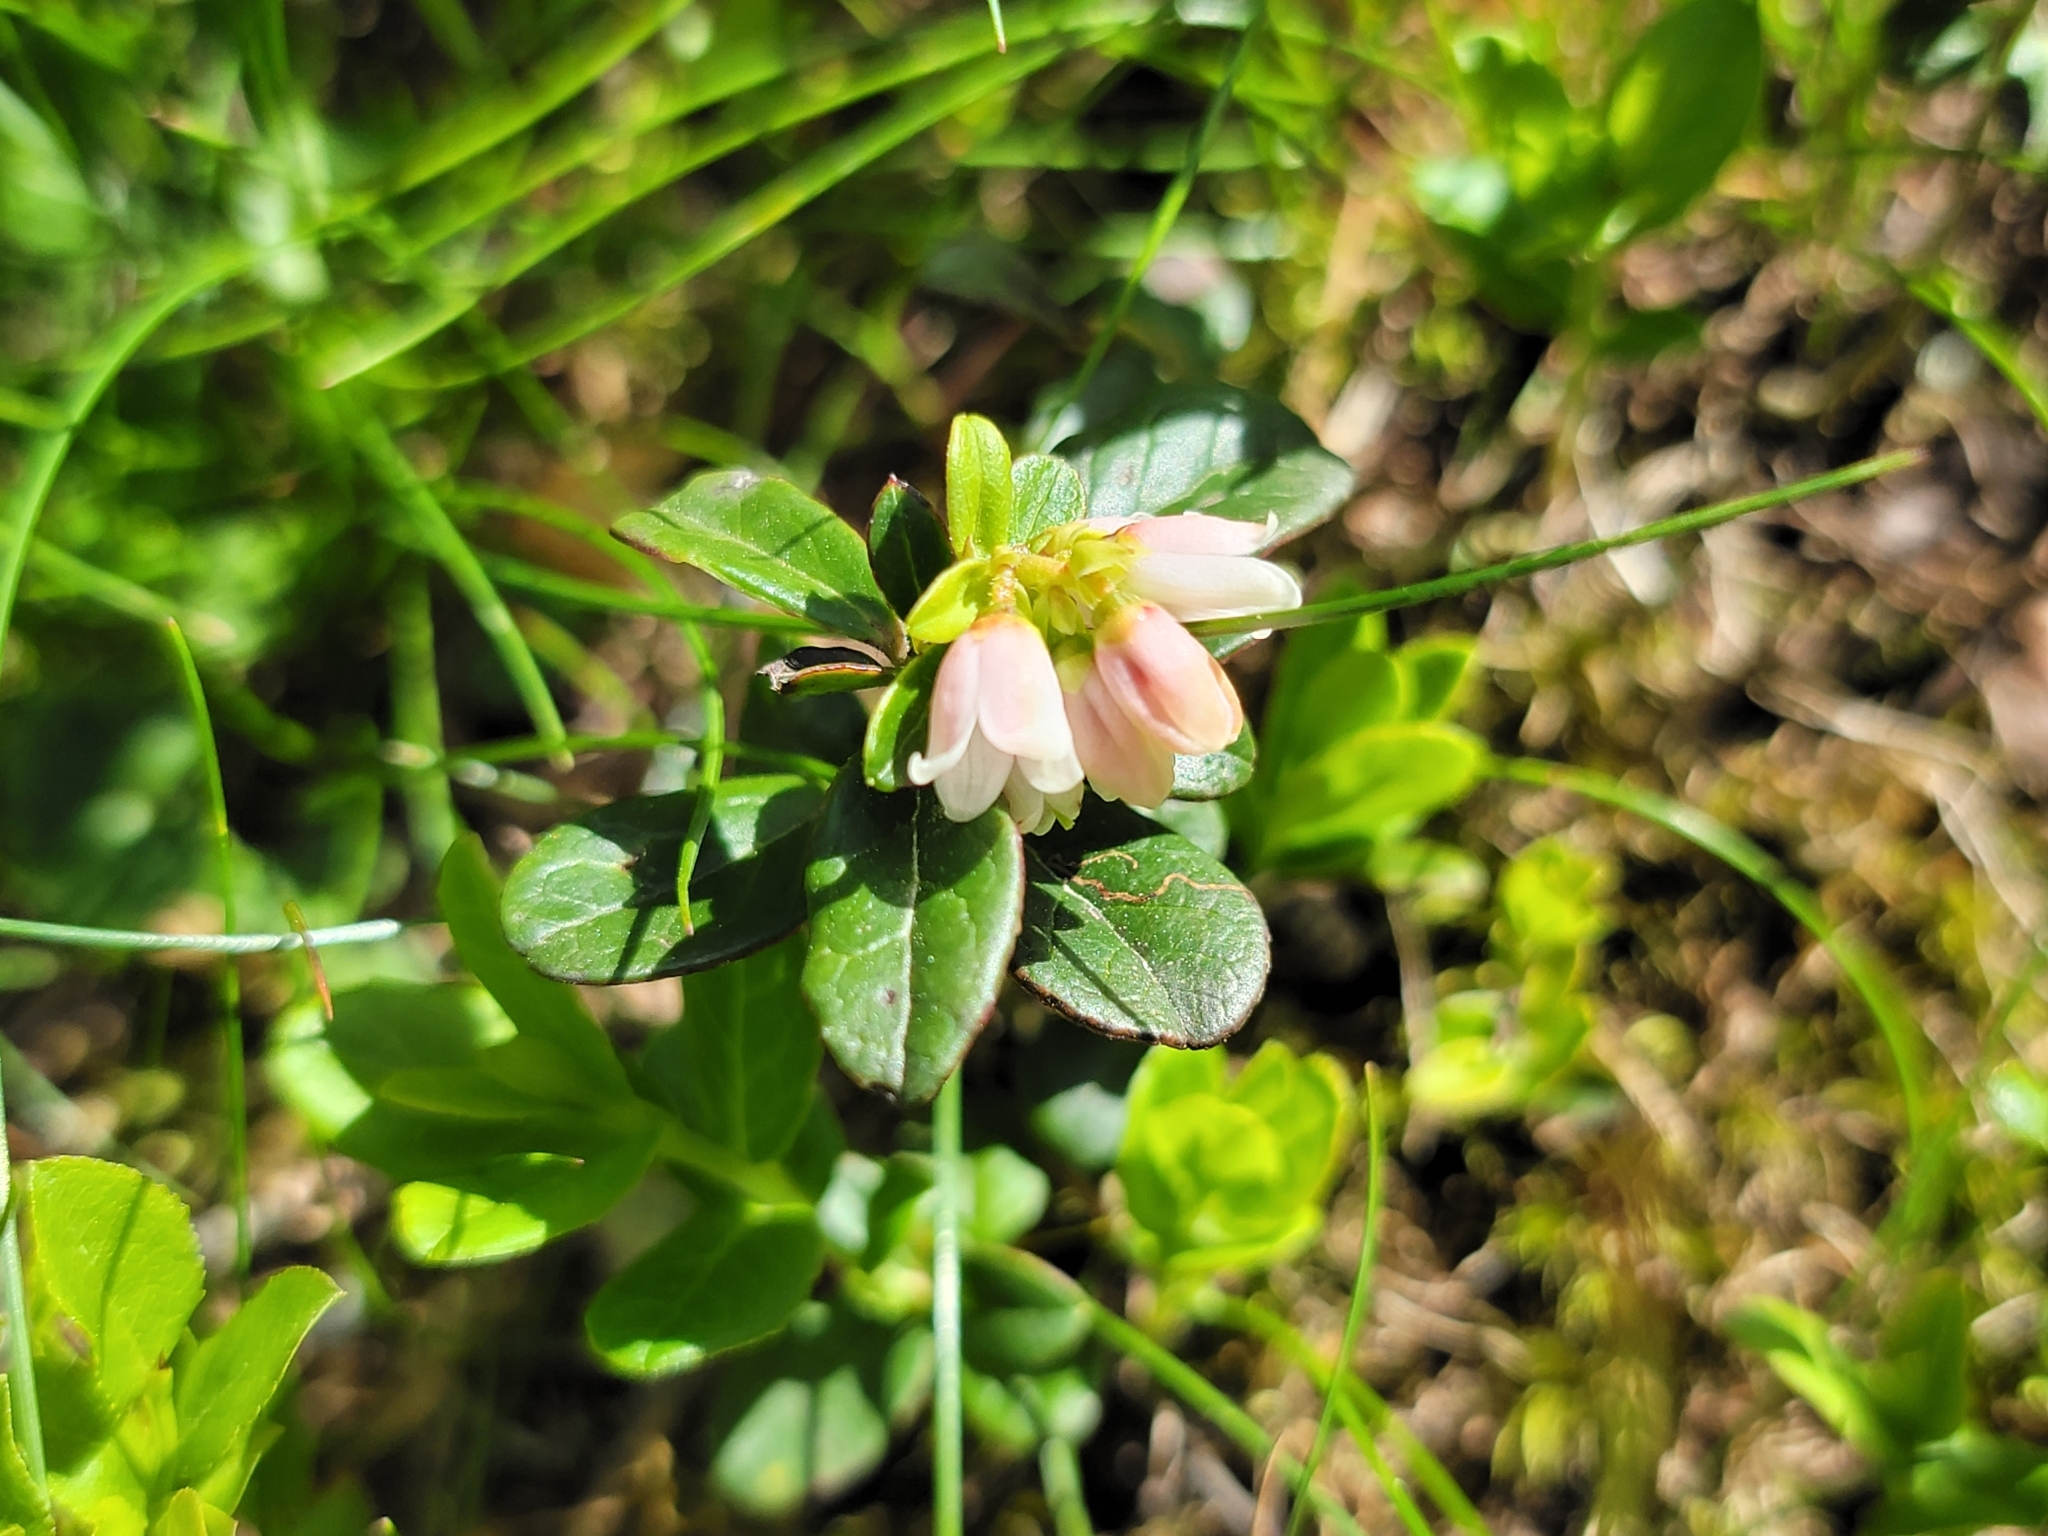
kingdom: Plantae
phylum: Tracheophyta
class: Magnoliopsida
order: Ericales
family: Ericaceae
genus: Vaccinium
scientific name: Vaccinium vitis-idaea
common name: Cowberry
